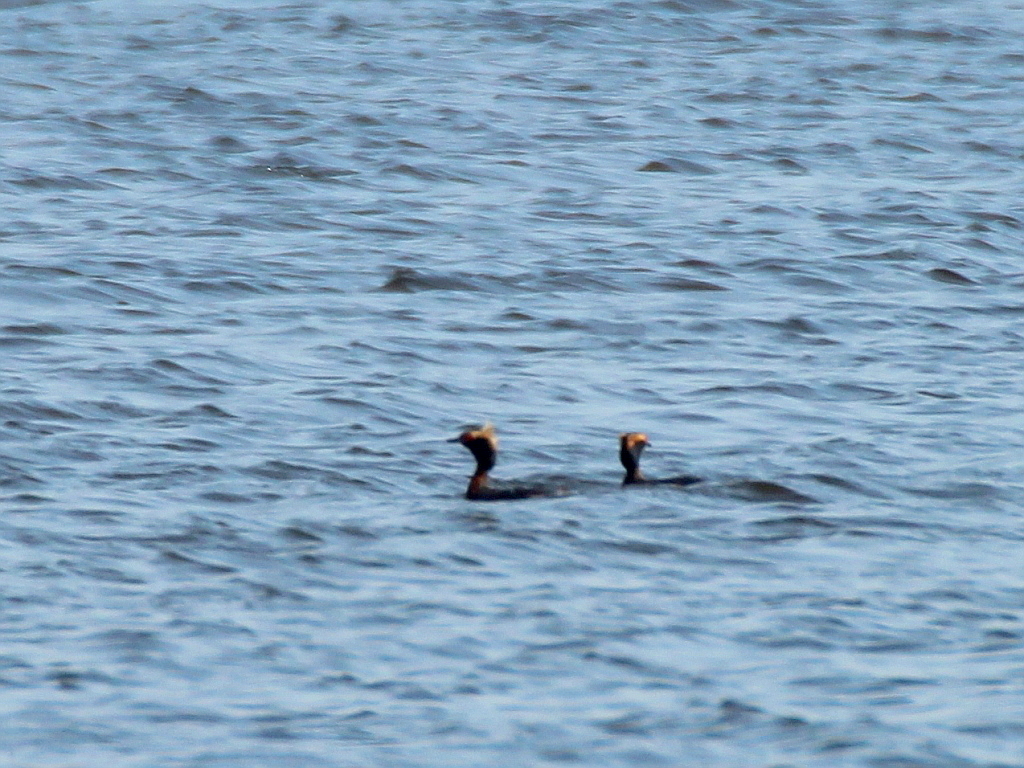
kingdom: Animalia
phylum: Chordata
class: Aves
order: Podicipediformes
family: Podicipedidae
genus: Podiceps
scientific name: Podiceps auritus
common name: Horned grebe
